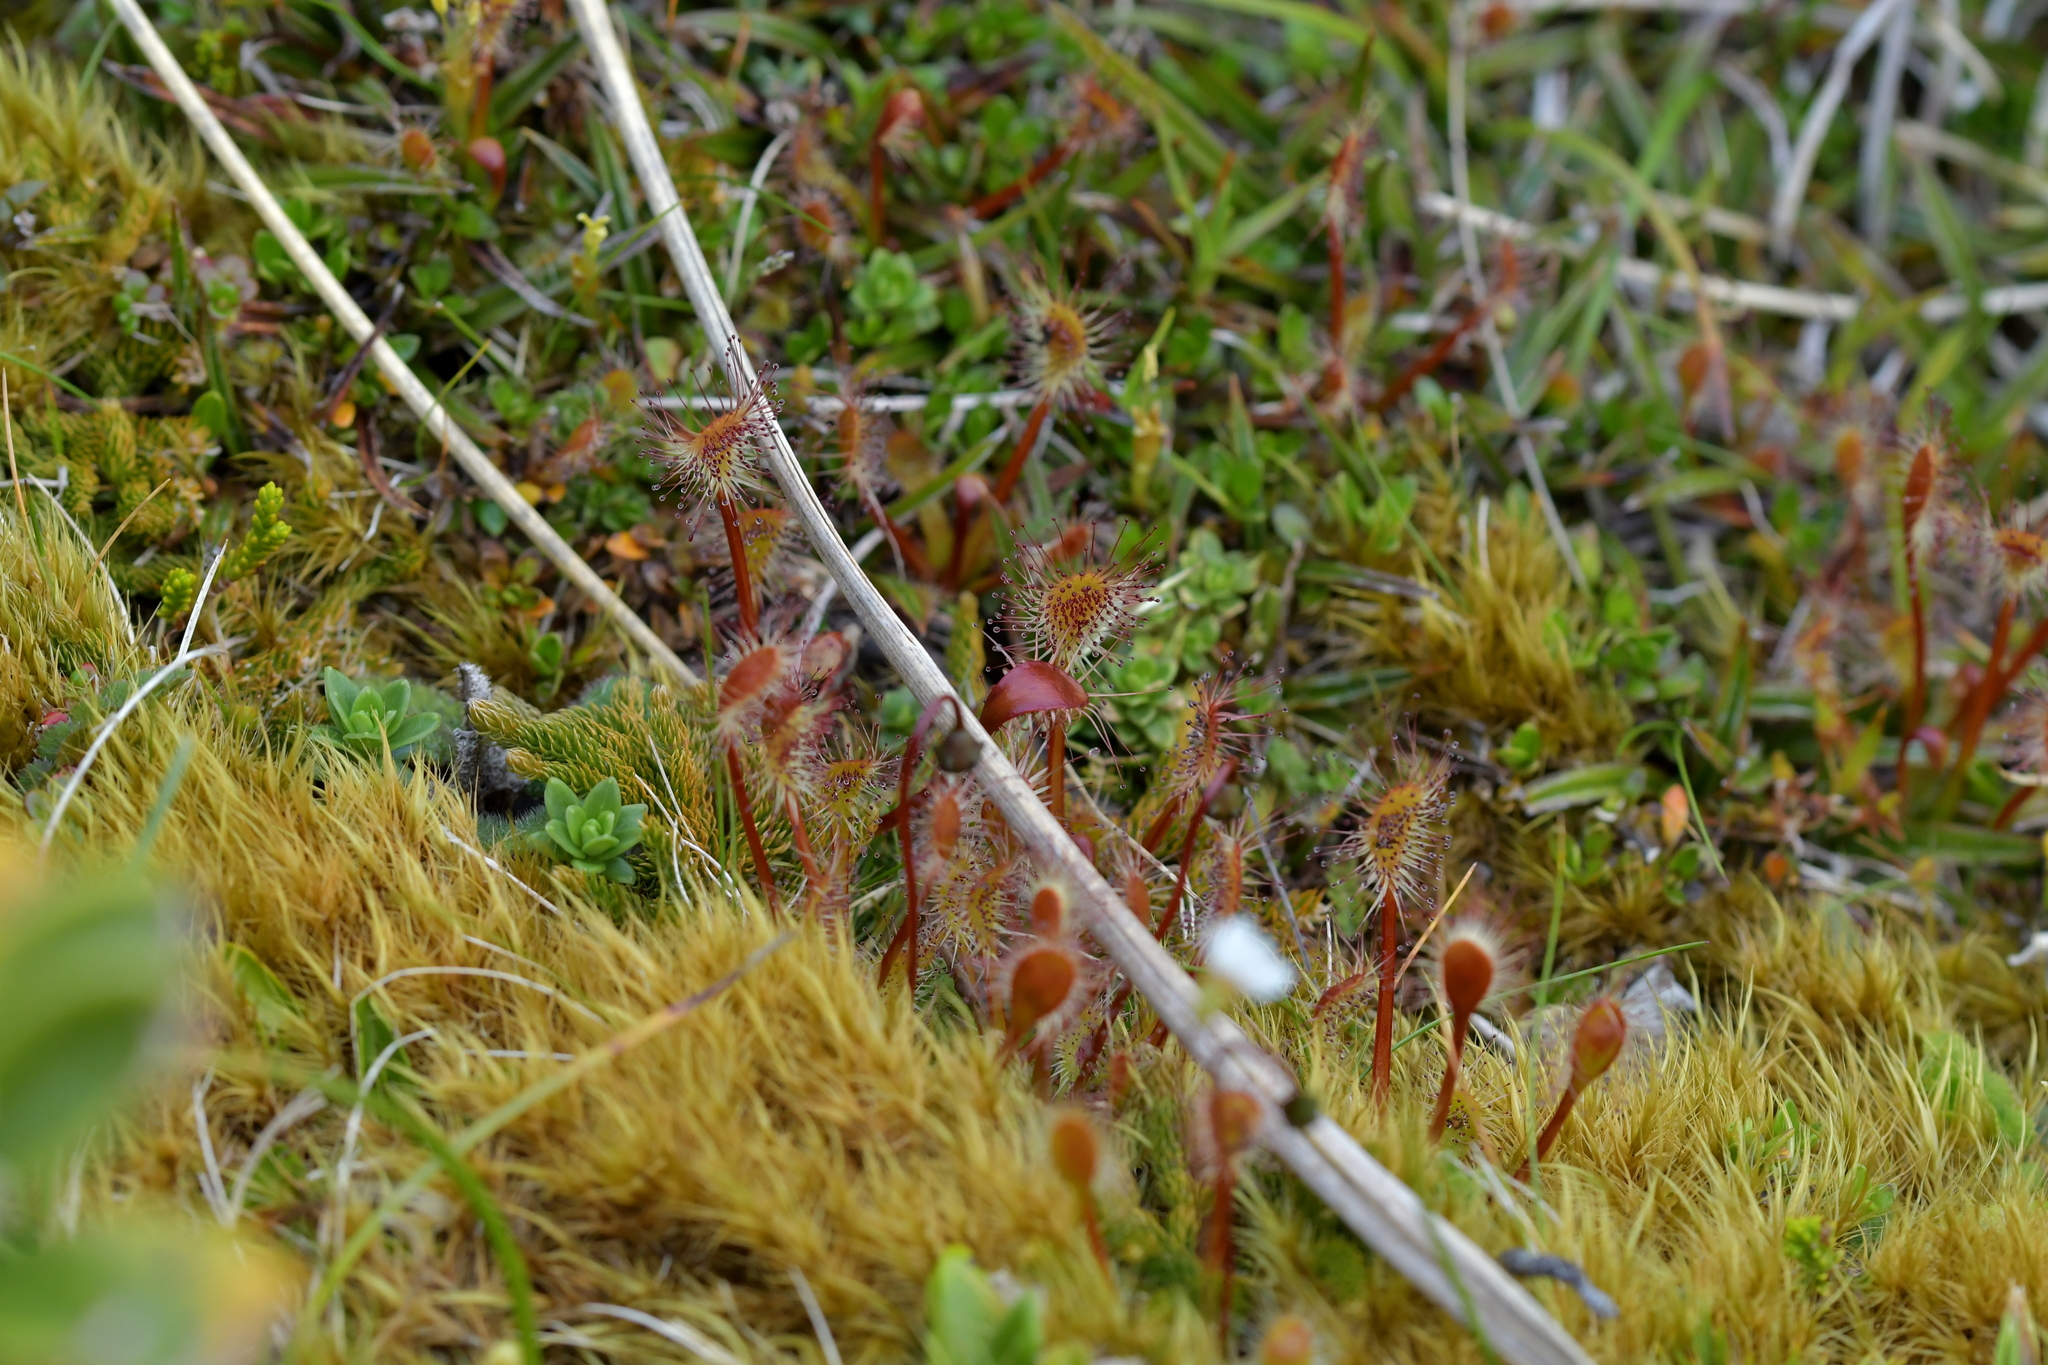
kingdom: Plantae
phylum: Tracheophyta
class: Magnoliopsida
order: Caryophyllales
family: Droseraceae
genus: Drosera
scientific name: Drosera stenopetala
